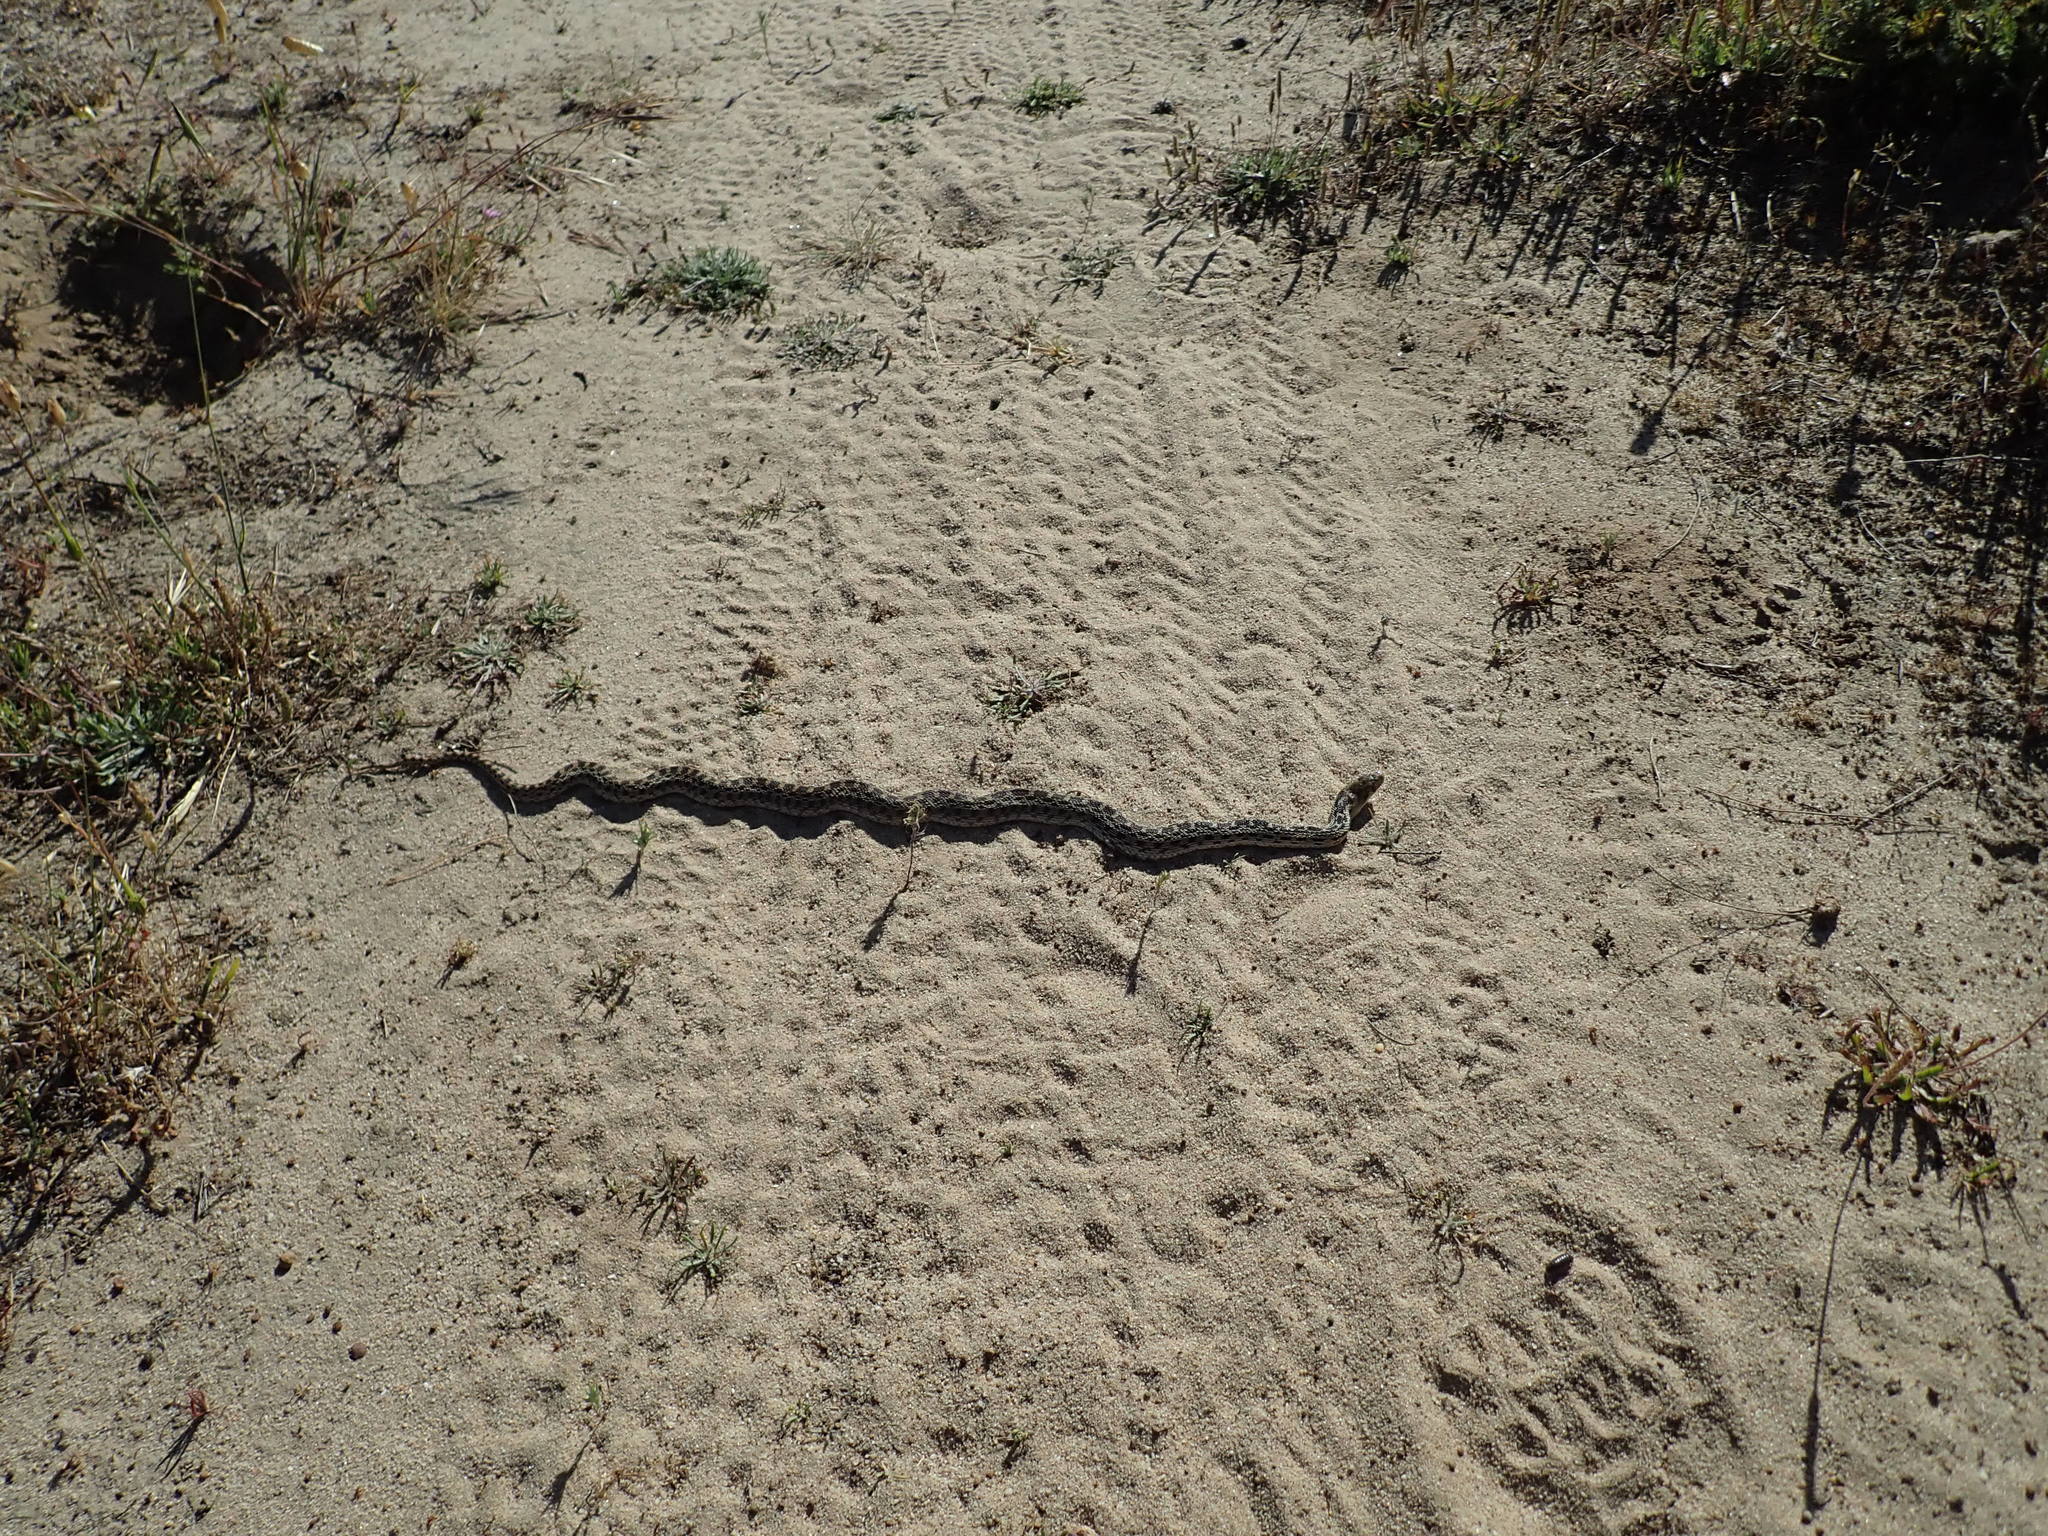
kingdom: Animalia
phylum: Chordata
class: Squamata
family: Colubridae
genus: Pituophis
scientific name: Pituophis catenifer
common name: Gopher snake
